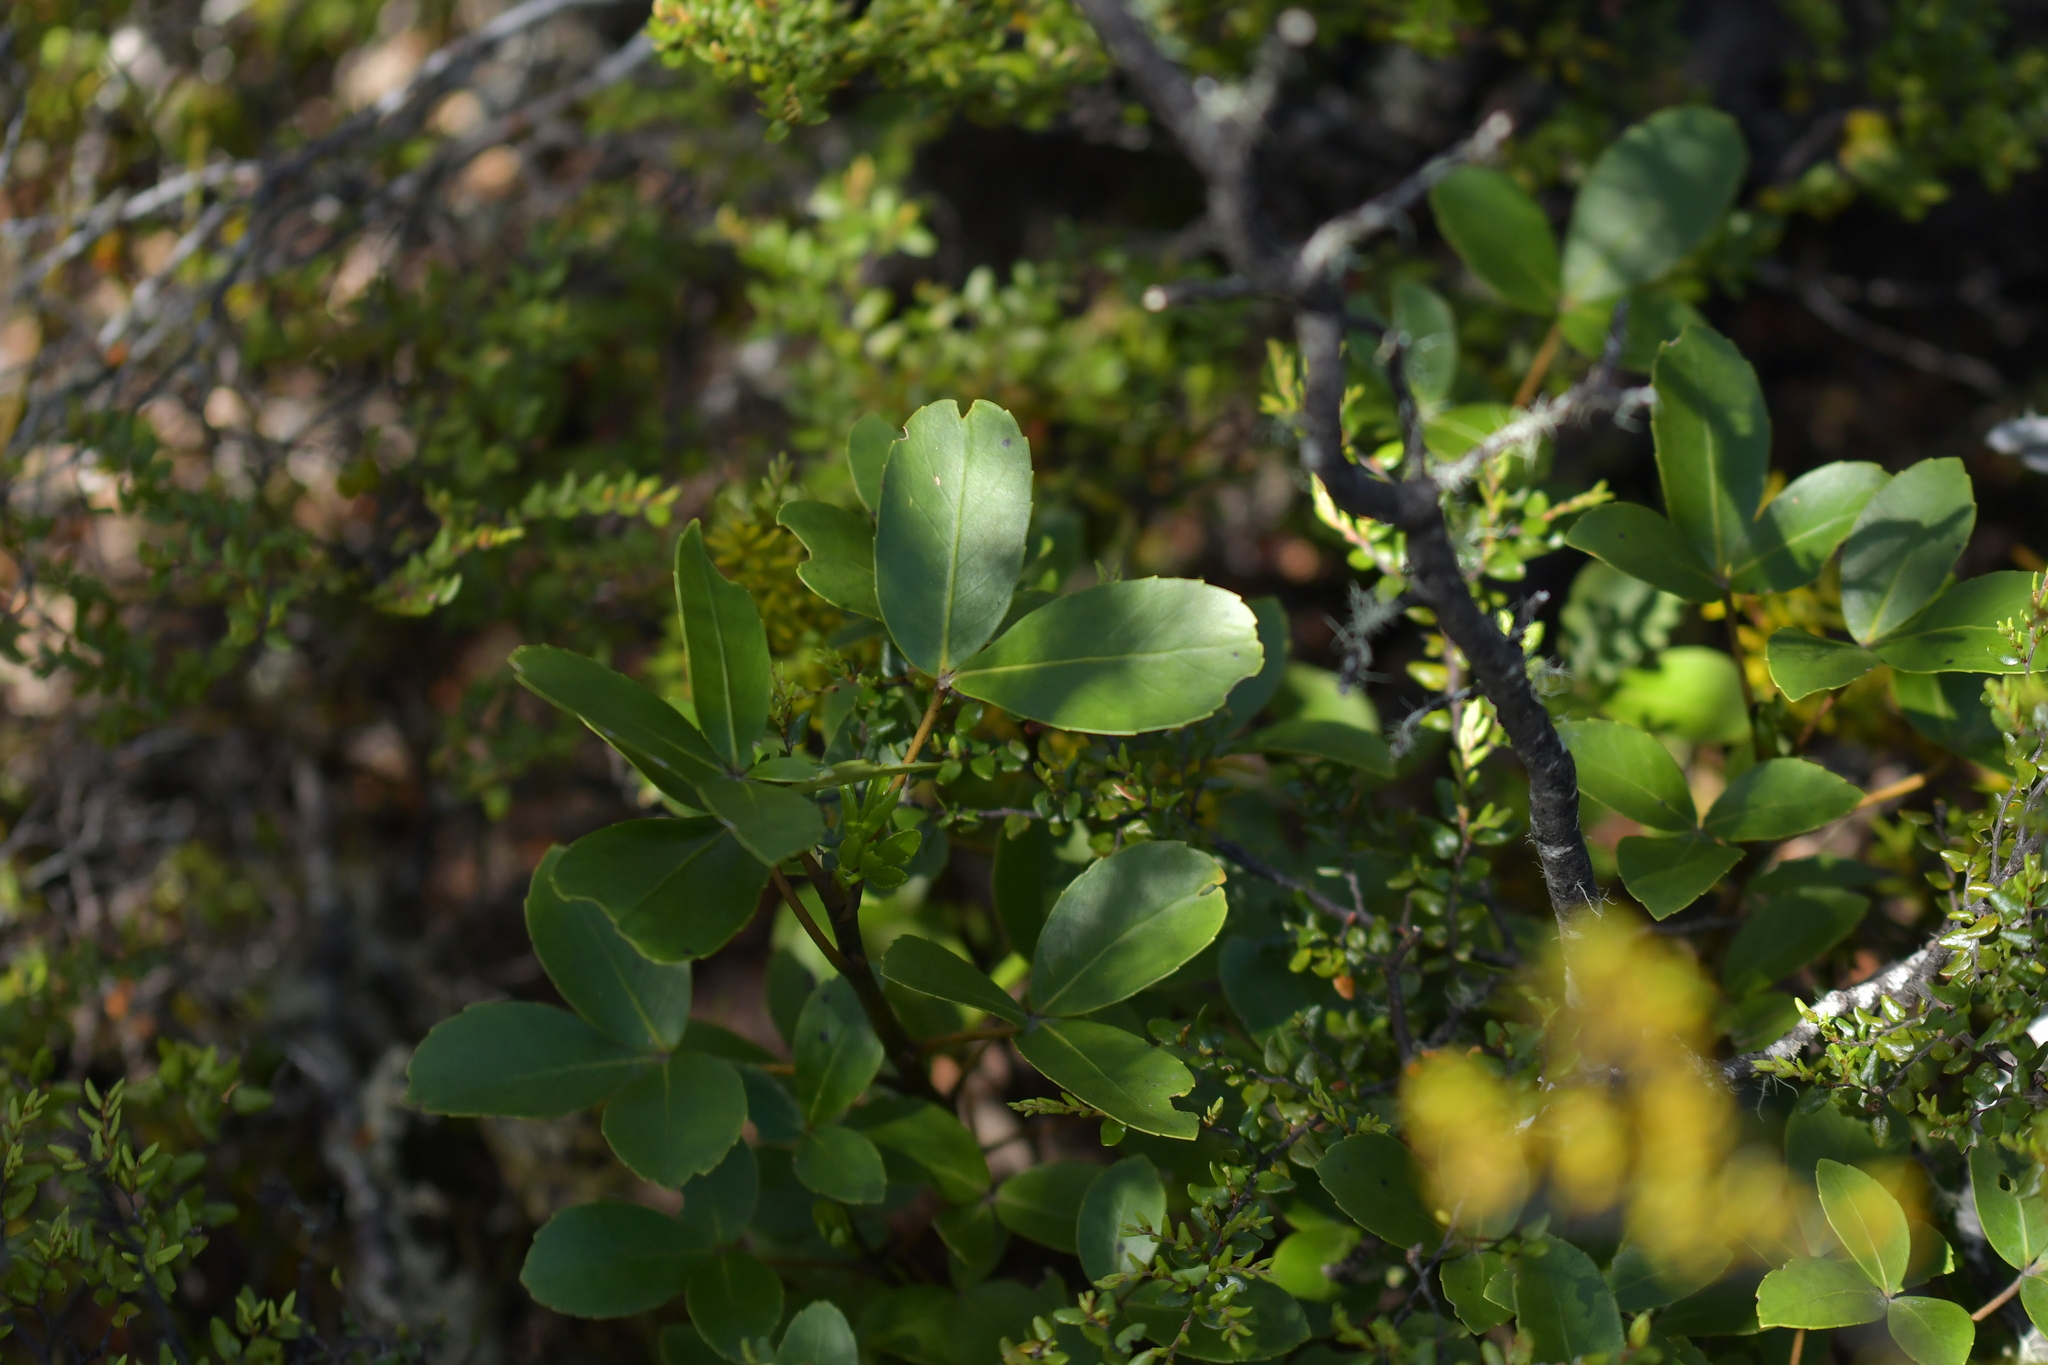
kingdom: Plantae
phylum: Tracheophyta
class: Magnoliopsida
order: Apiales
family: Araliaceae
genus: Neopanax
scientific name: Neopanax colensoi
